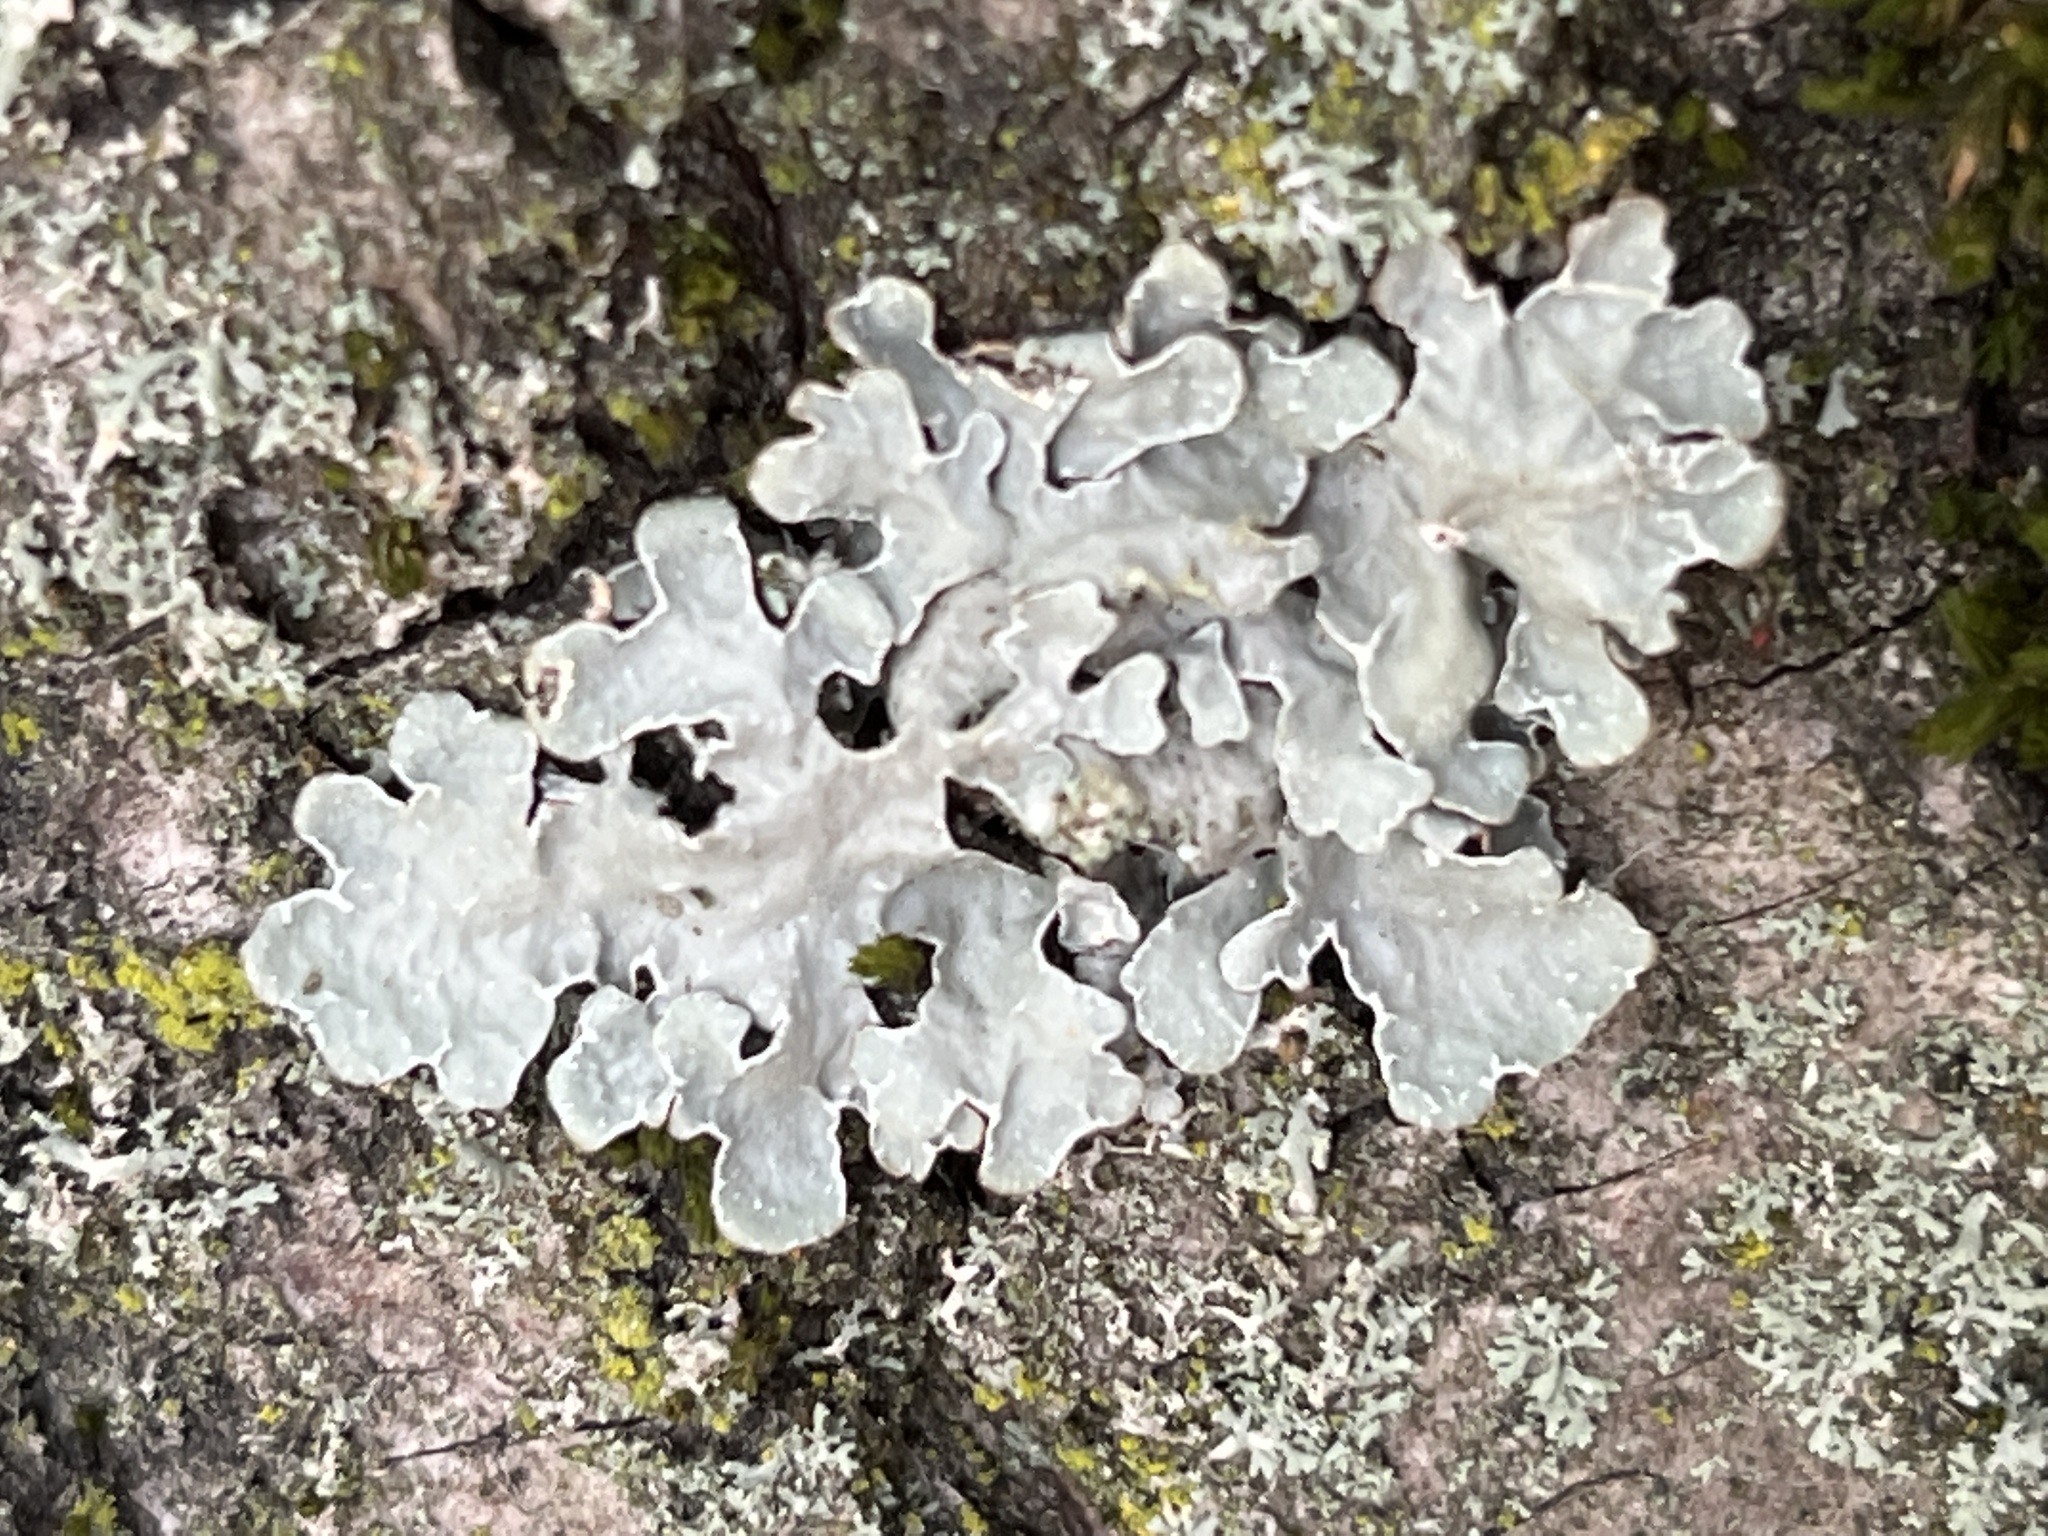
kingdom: Fungi
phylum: Ascomycota
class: Lecanoromycetes
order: Lecanorales
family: Parmeliaceae
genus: Parmelia
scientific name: Parmelia sulcata
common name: Netted shield lichen
